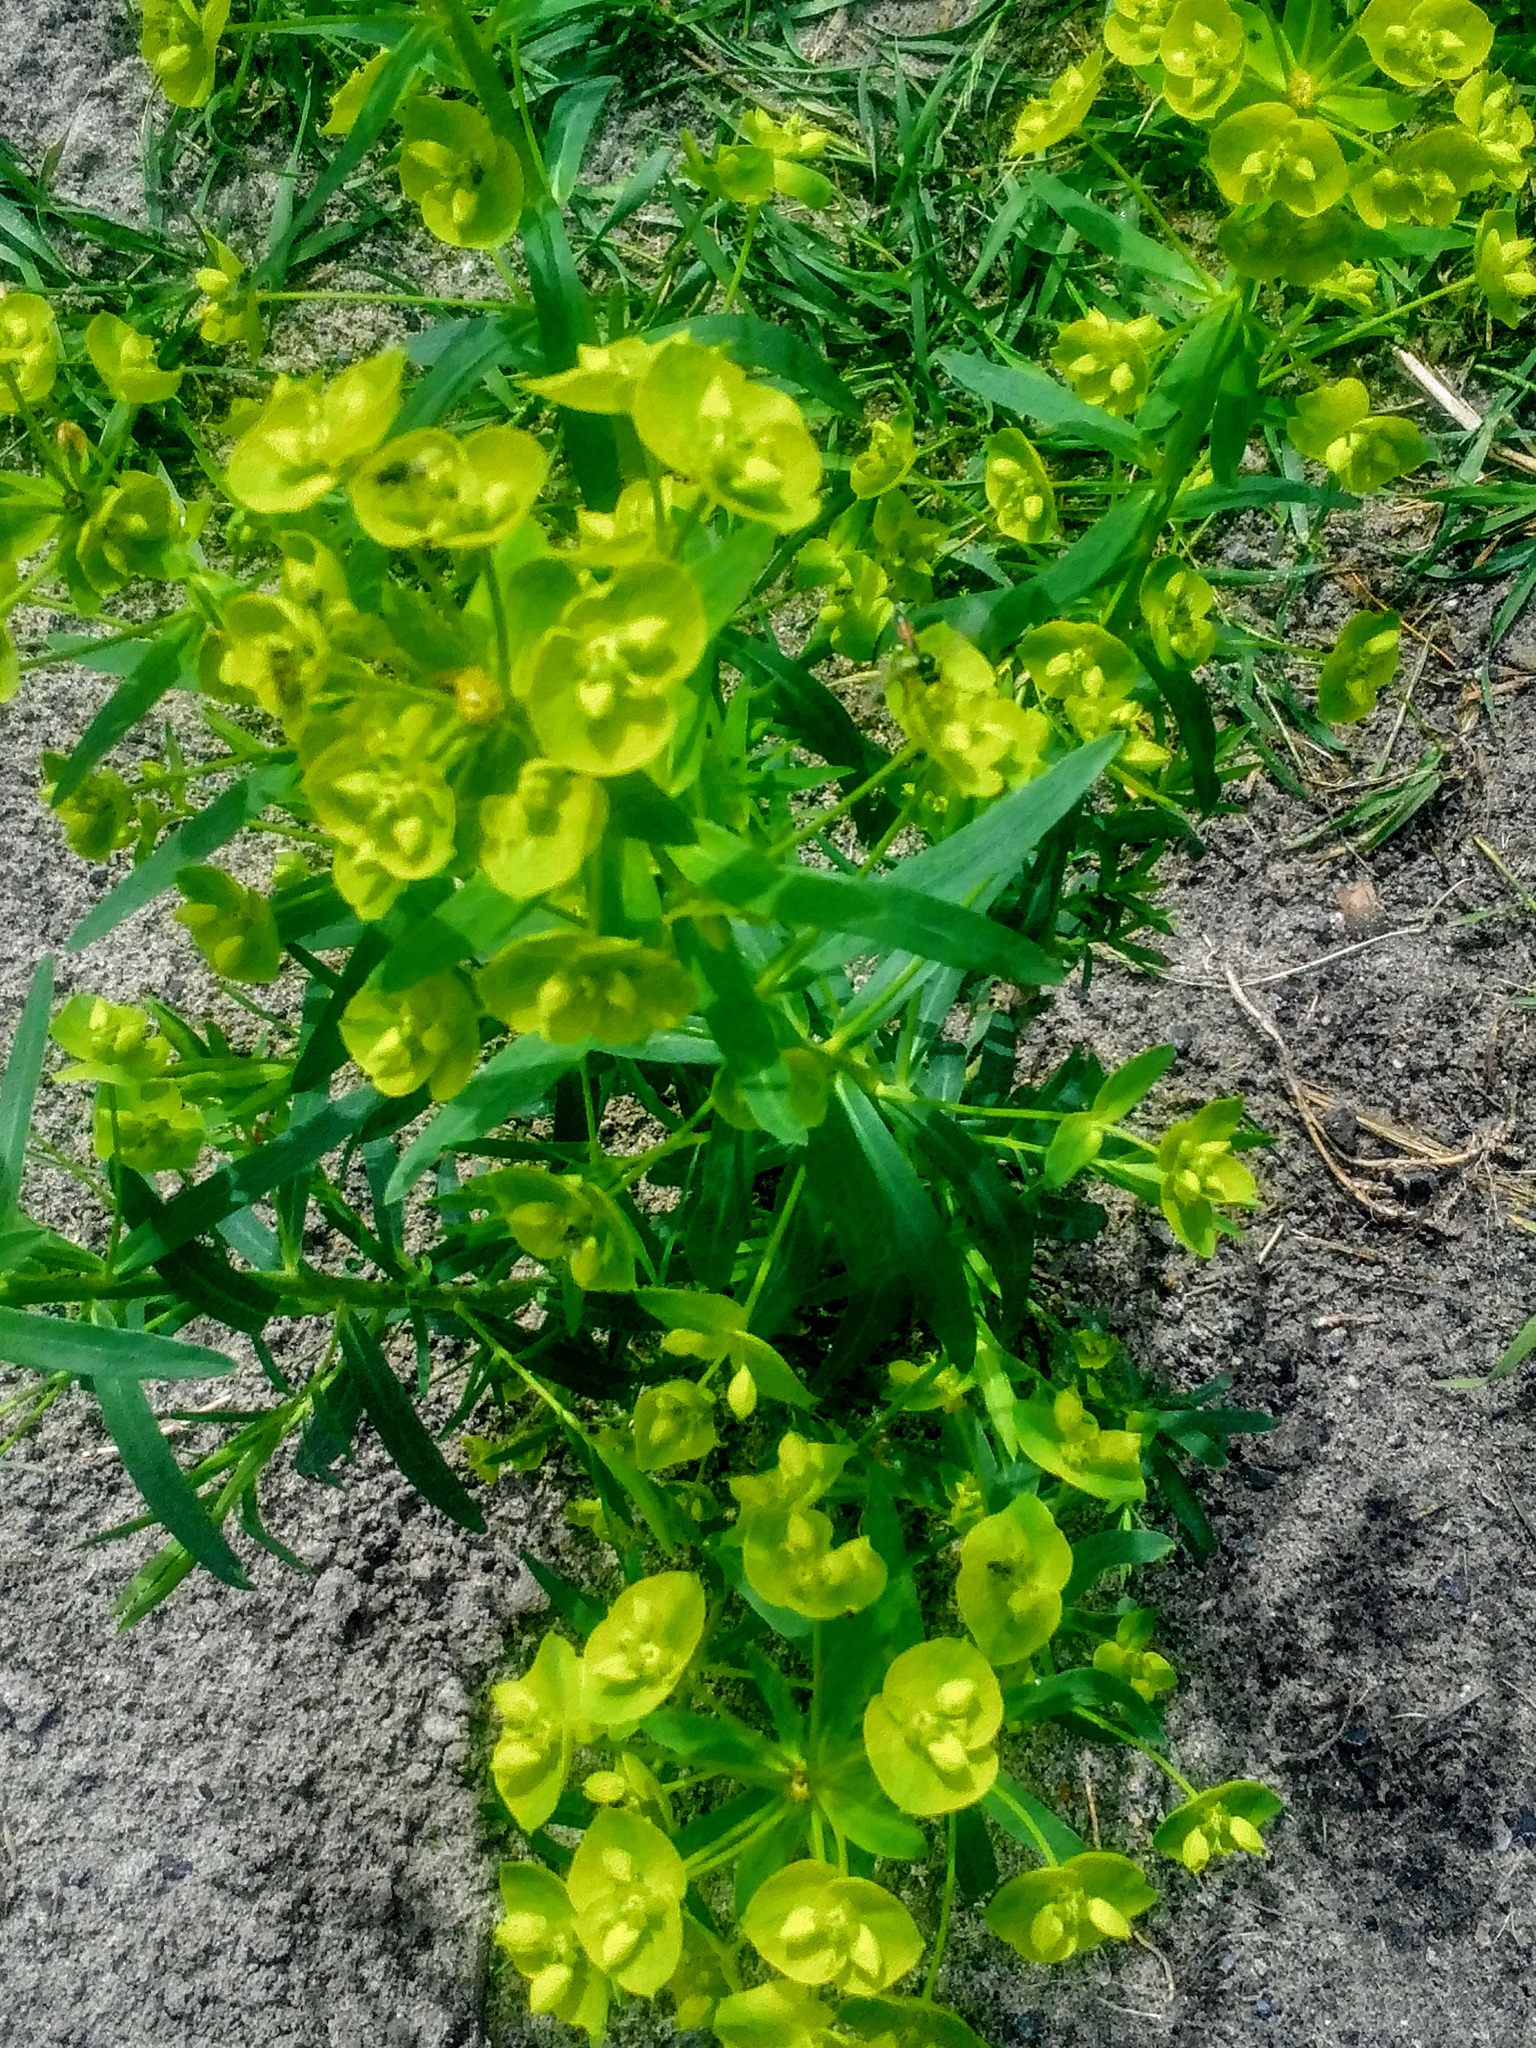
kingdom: Plantae
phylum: Tracheophyta
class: Magnoliopsida
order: Malpighiales
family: Euphorbiaceae
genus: Euphorbia
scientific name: Euphorbia virgata
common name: Leafy spurge
